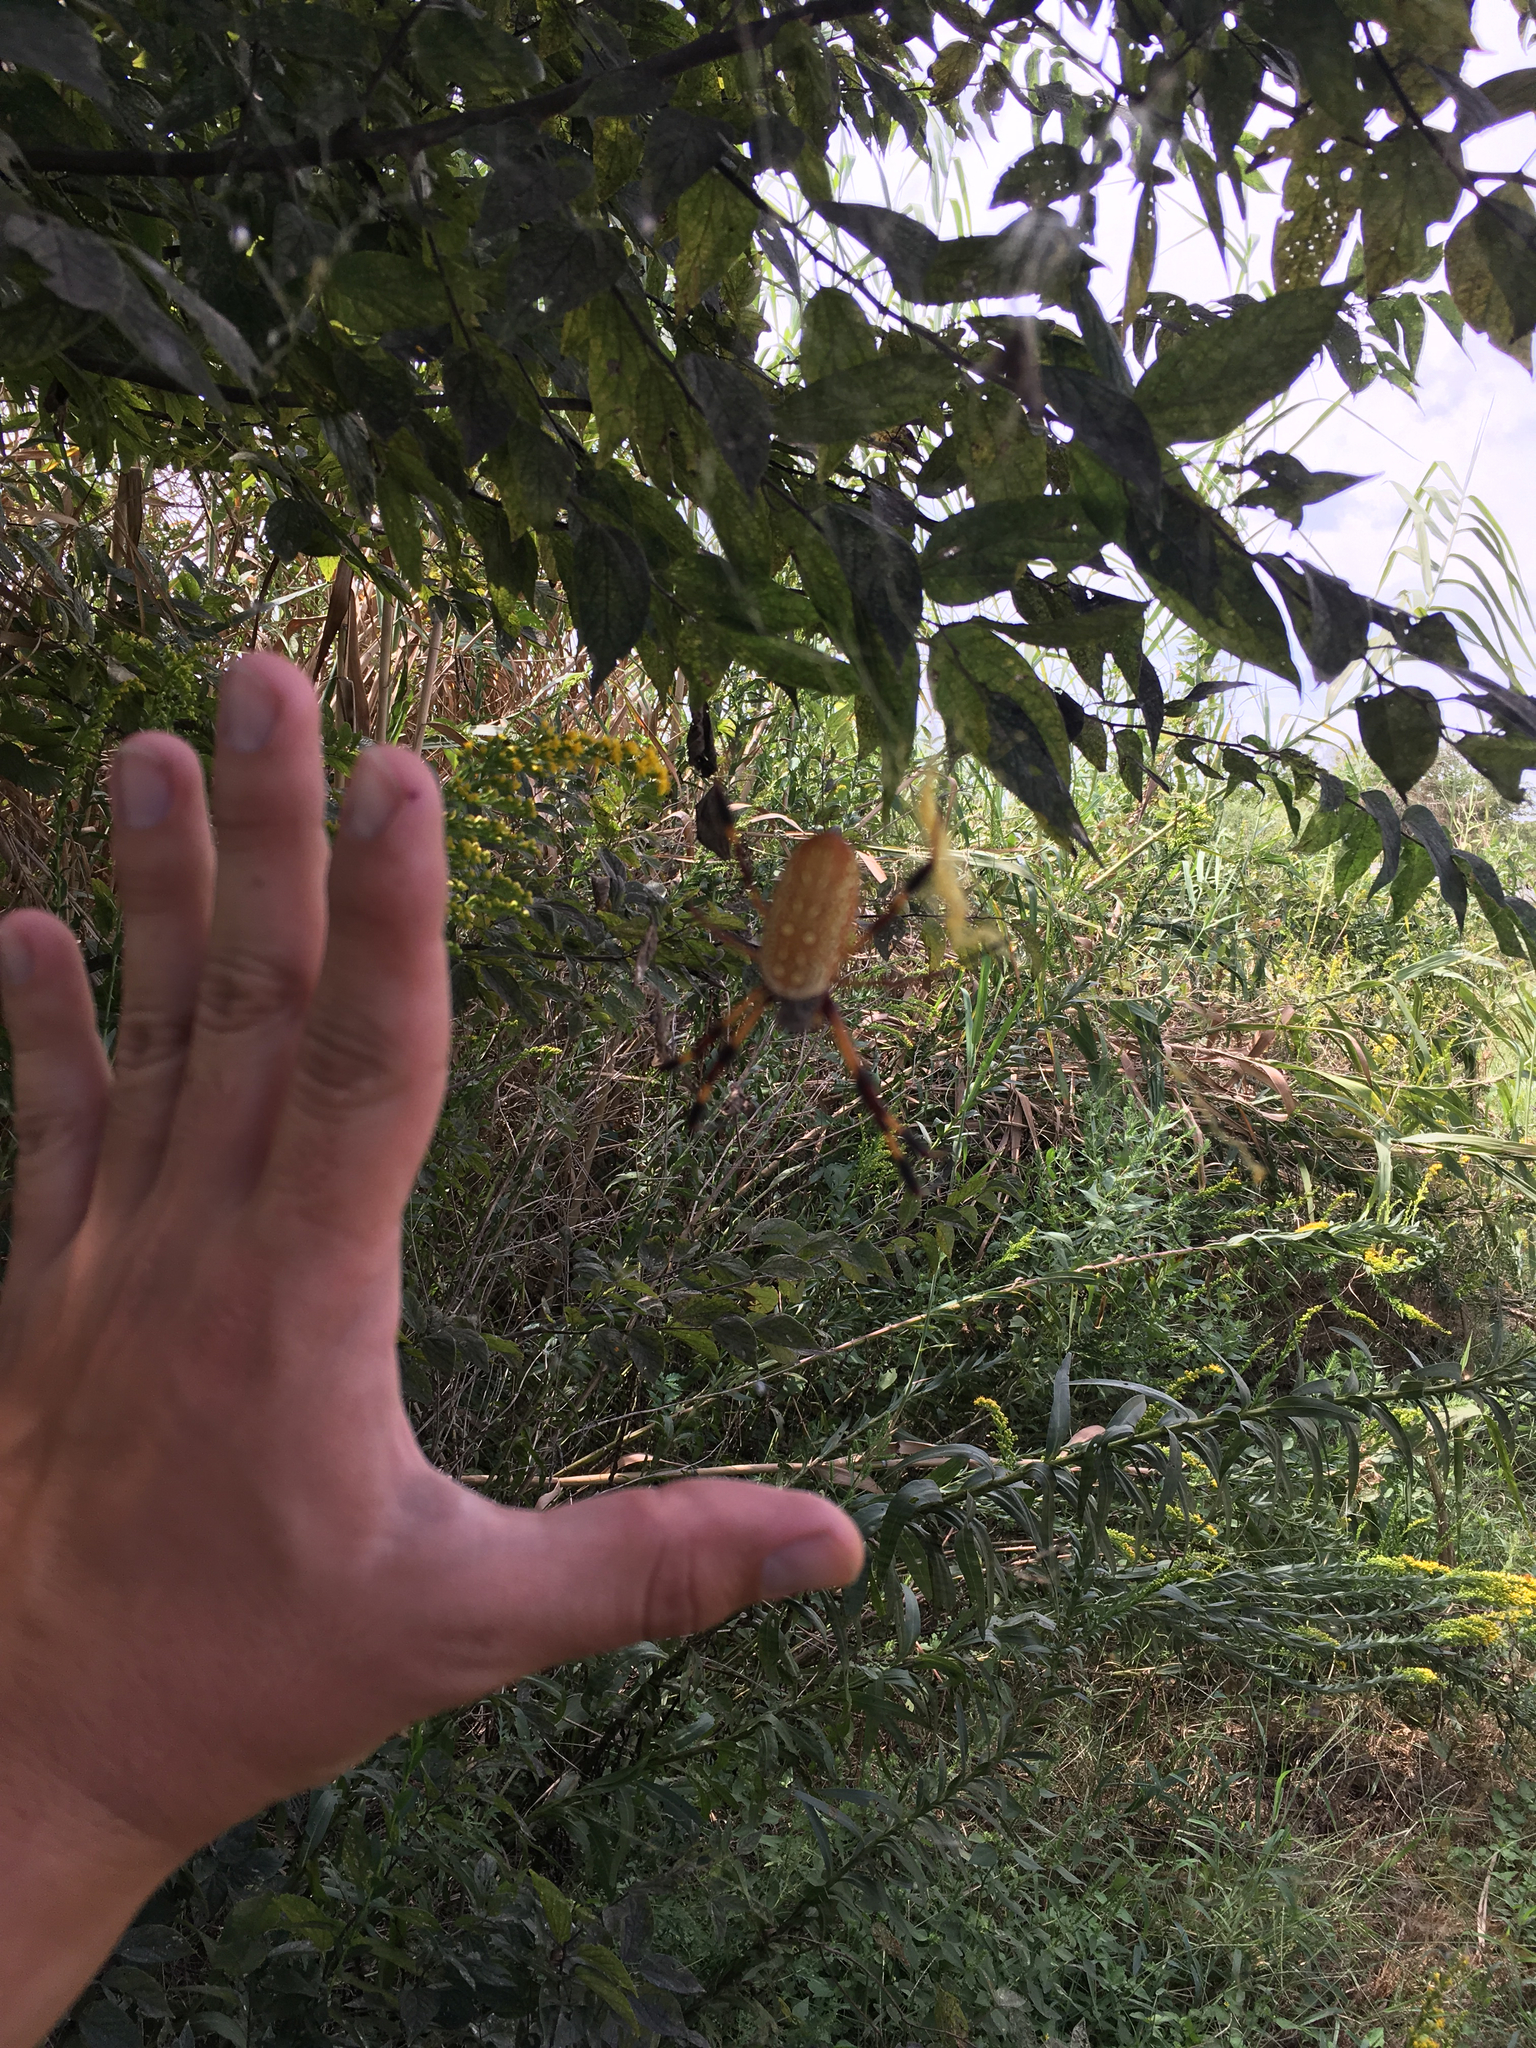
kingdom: Animalia
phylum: Arthropoda
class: Arachnida
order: Araneae
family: Araneidae
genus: Trichonephila
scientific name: Trichonephila clavipes
